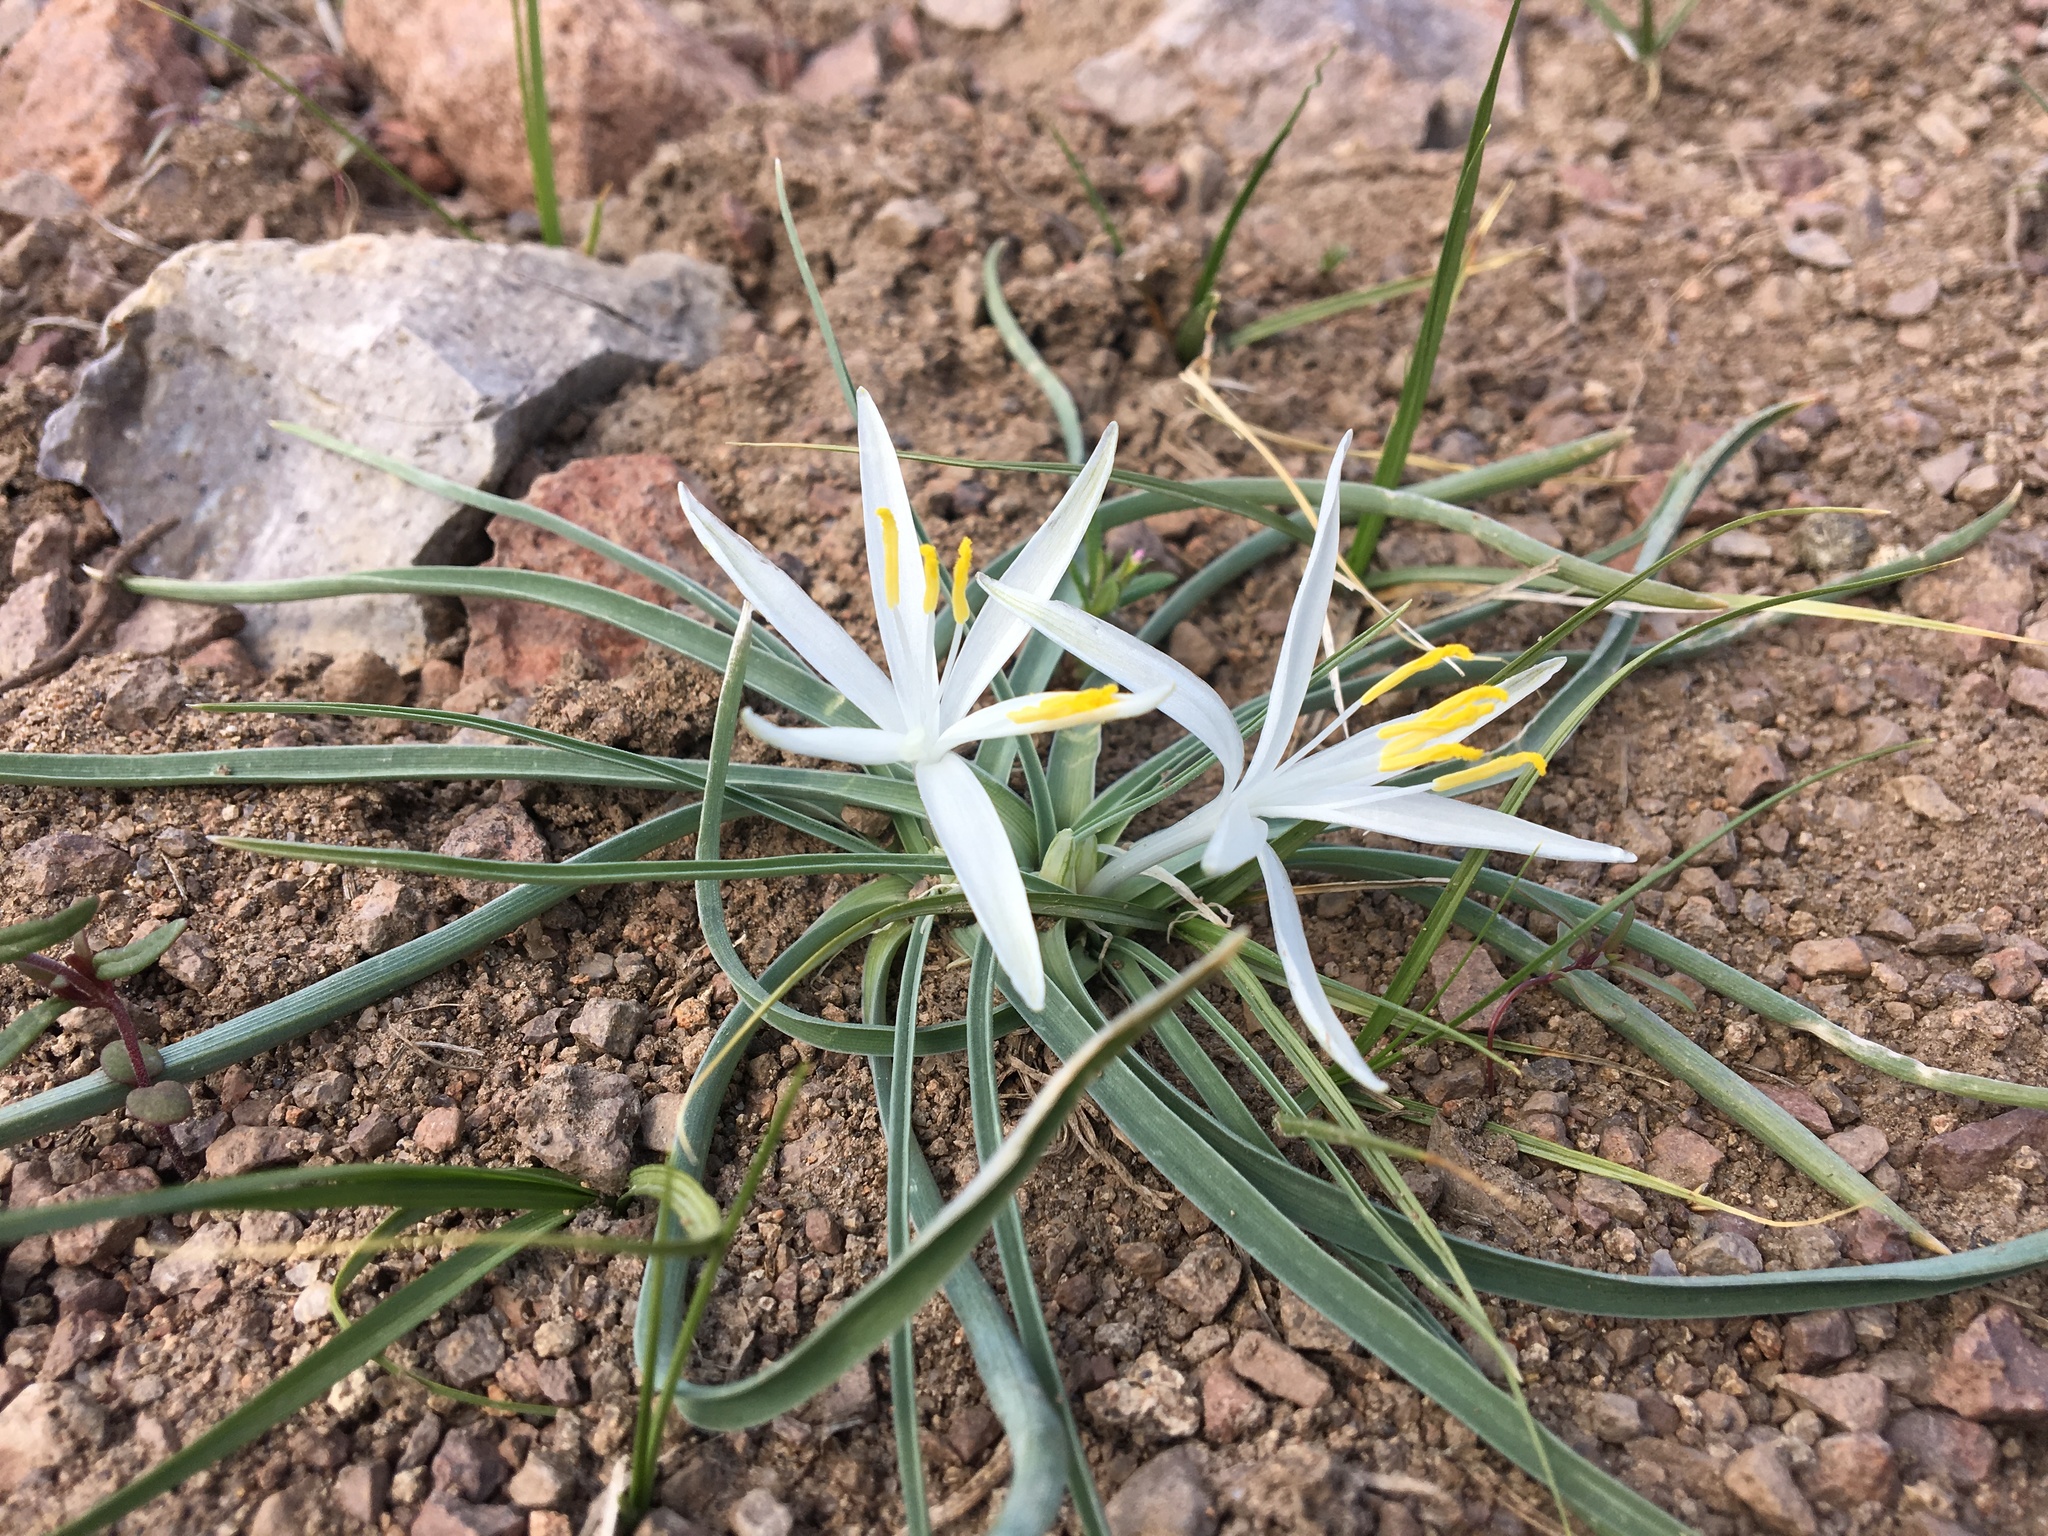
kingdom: Plantae
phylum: Tracheophyta
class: Liliopsida
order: Asparagales
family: Asparagaceae
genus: Leucocrinum
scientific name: Leucocrinum montanum
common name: Mountain-lily
